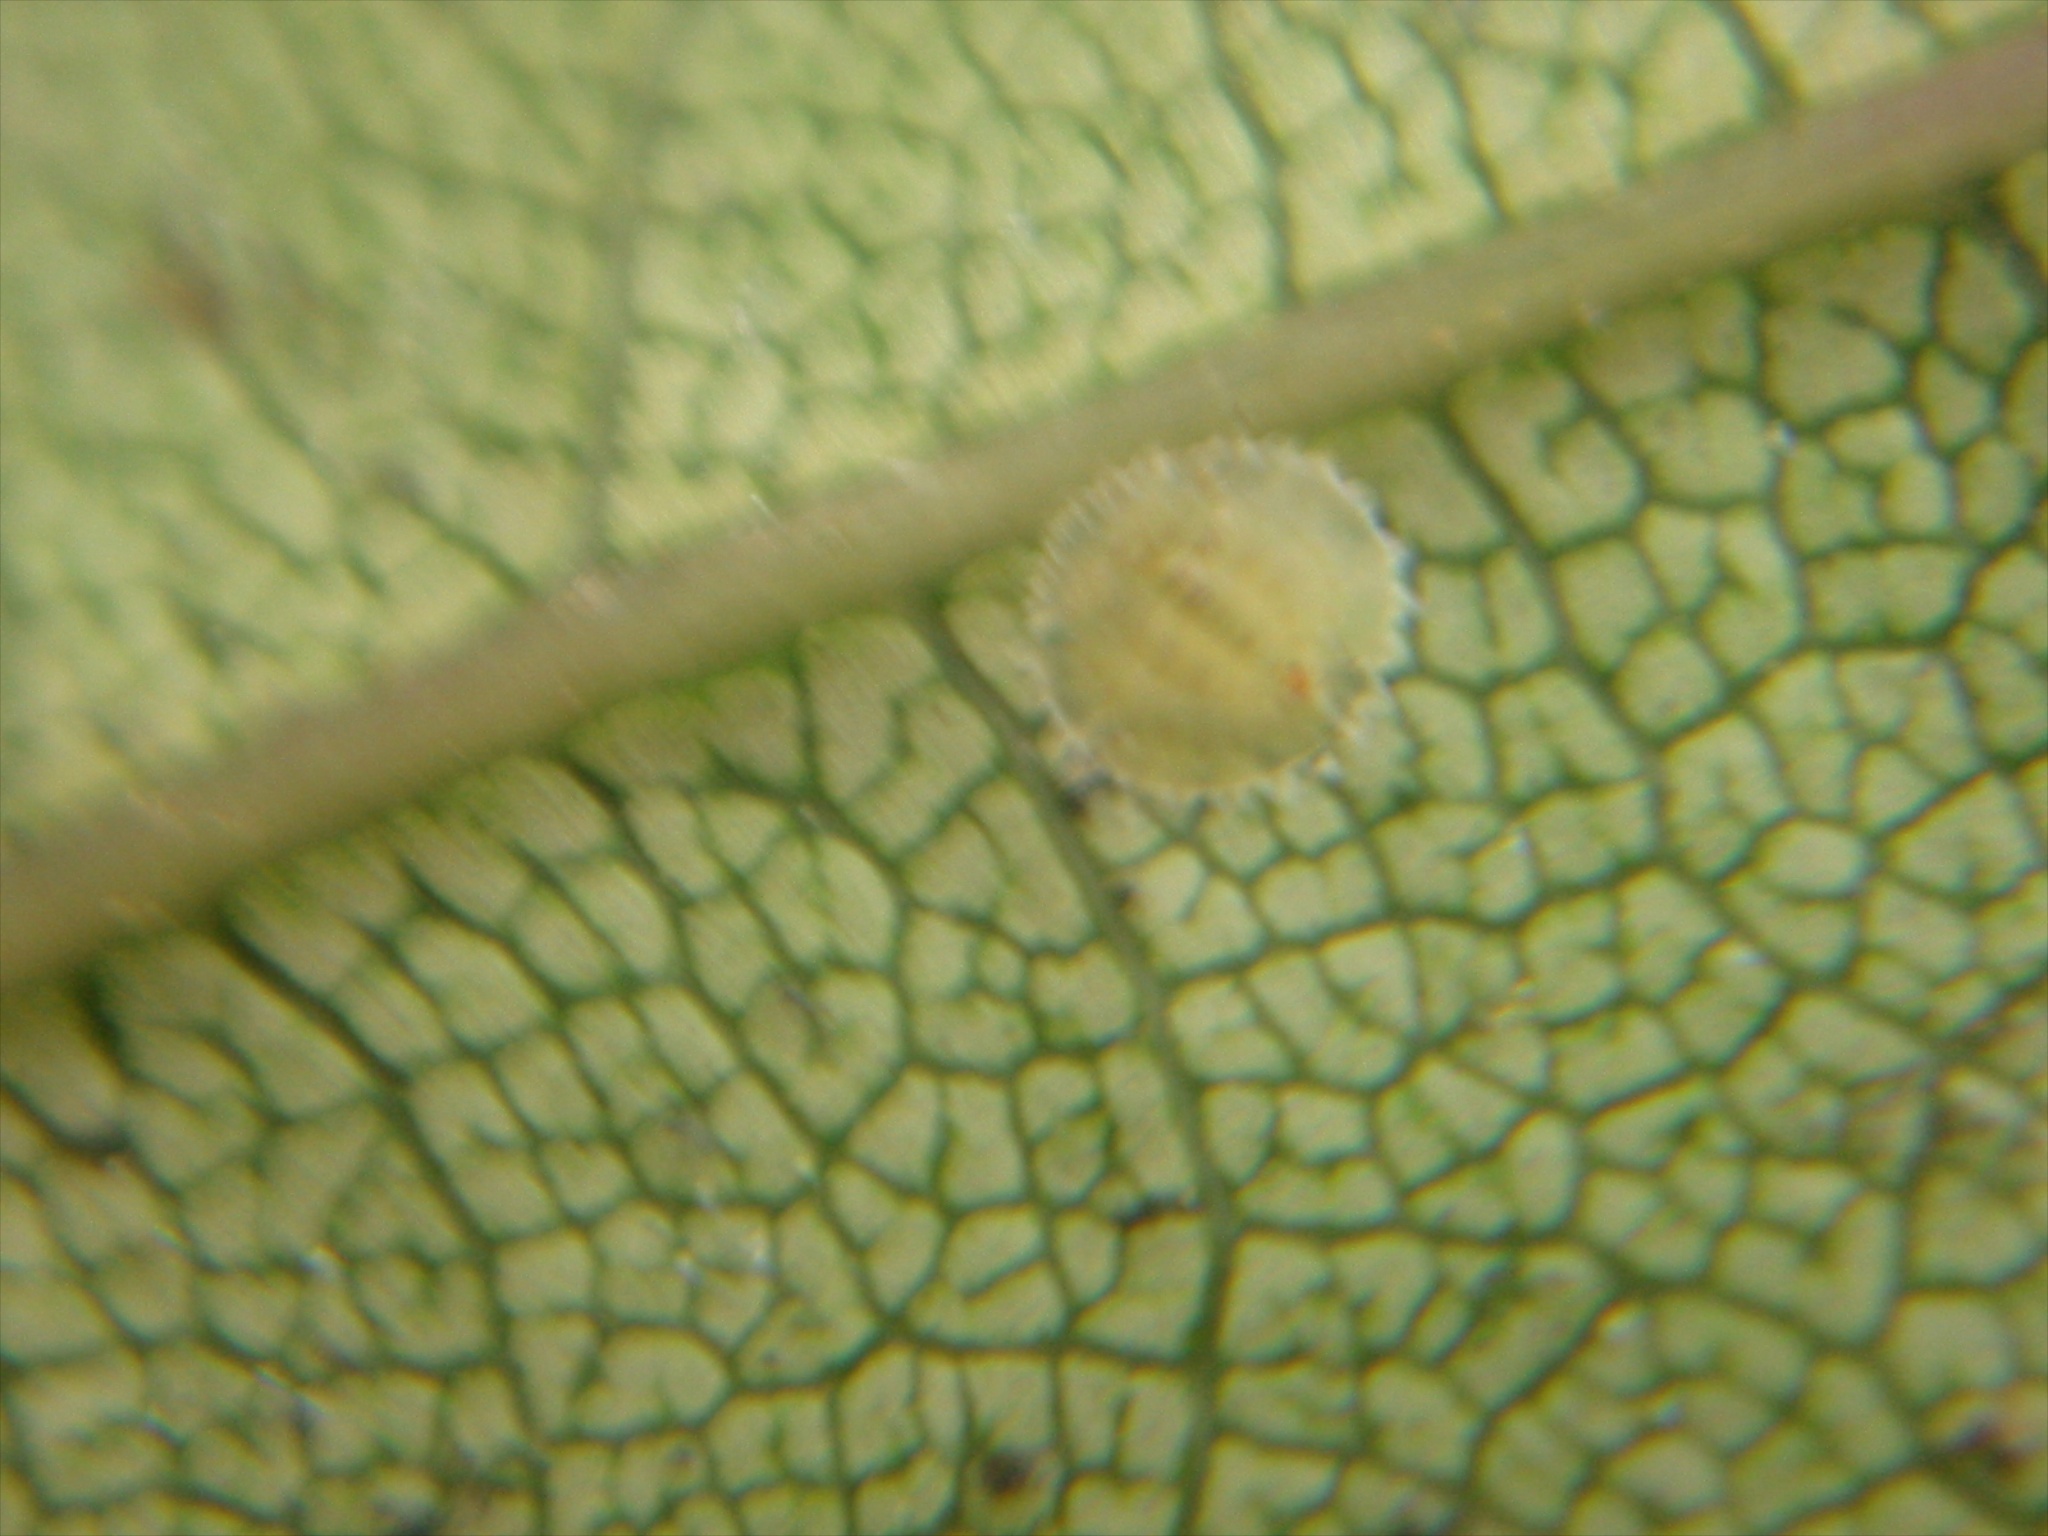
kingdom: Animalia
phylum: Arthropoda
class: Insecta
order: Hemiptera
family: Coccidae
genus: Epelidochiton
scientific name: Epelidochiton piperis
